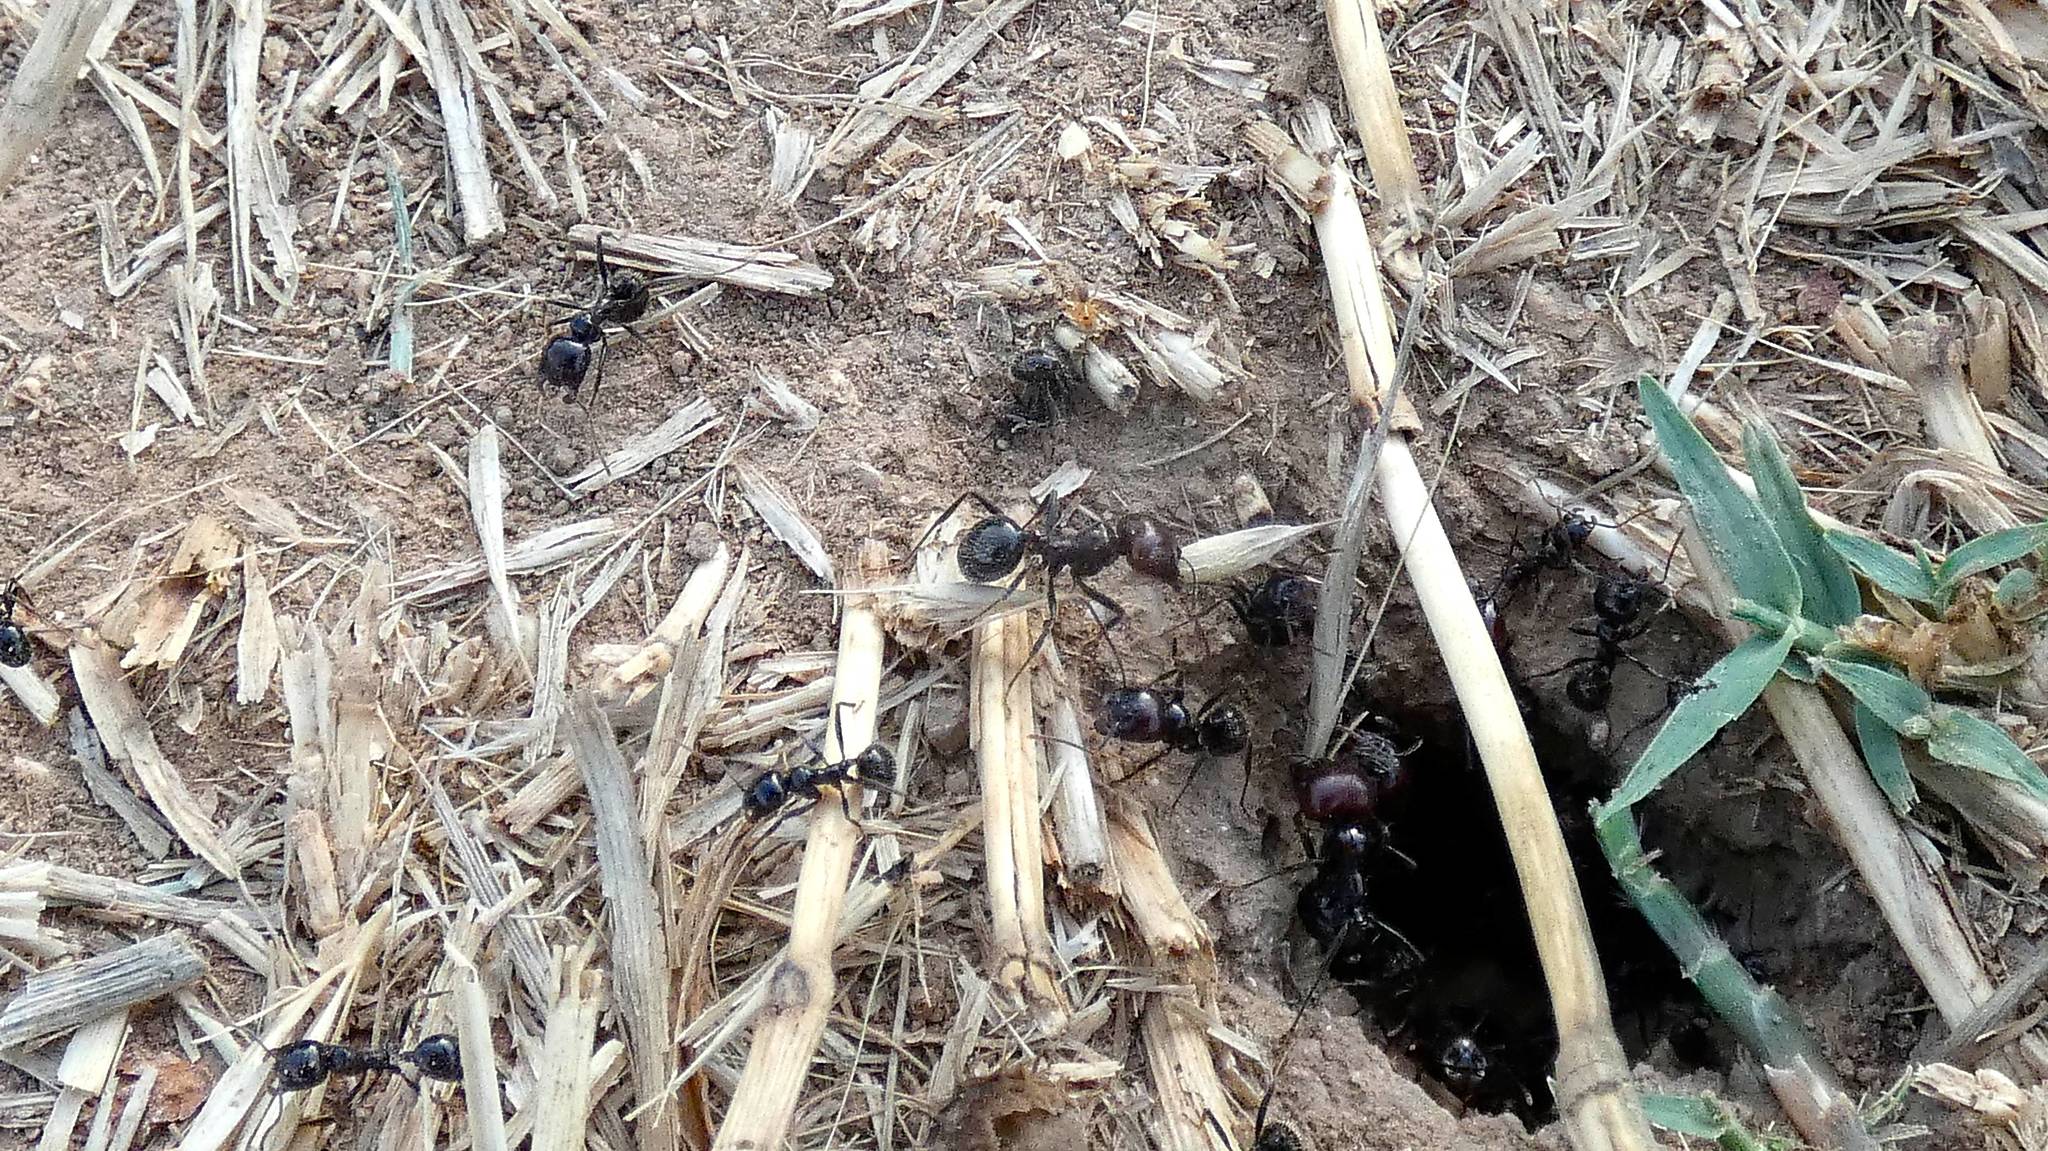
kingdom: Animalia
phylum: Arthropoda
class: Insecta
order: Hymenoptera
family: Formicidae
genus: Messor
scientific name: Messor barbarus
